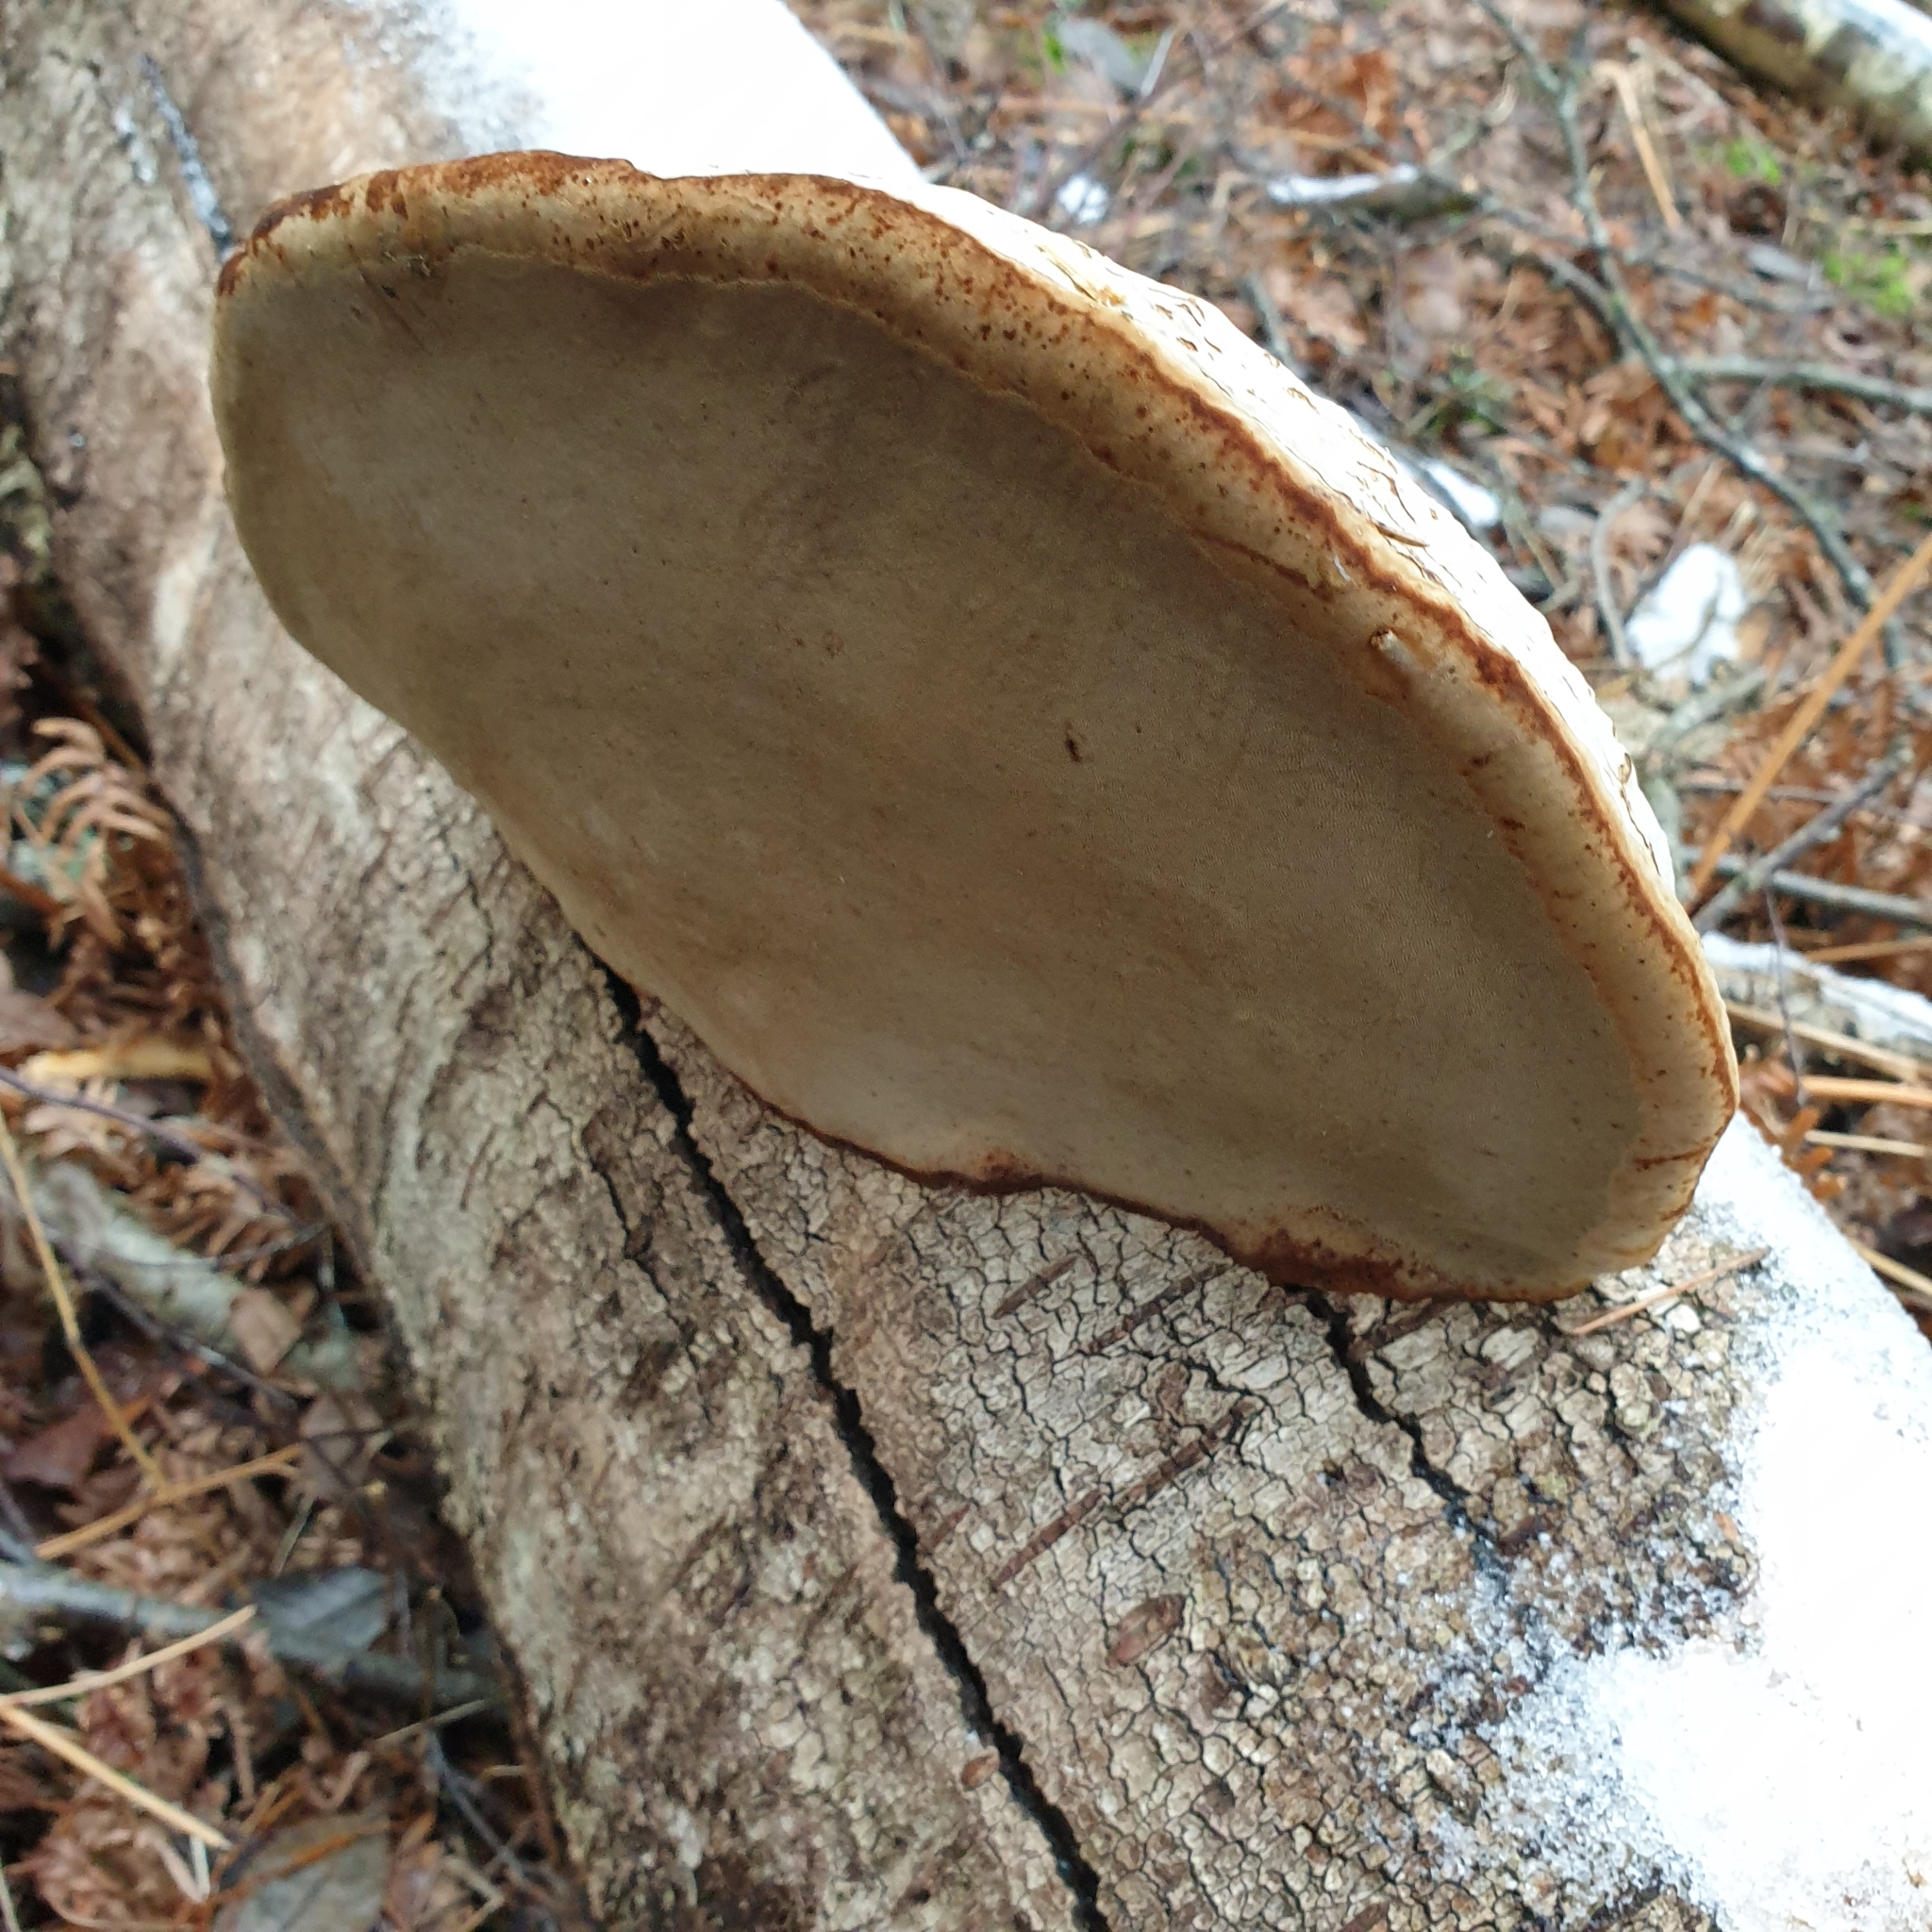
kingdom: Fungi
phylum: Basidiomycota
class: Agaricomycetes
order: Polyporales
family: Polyporaceae
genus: Fomes
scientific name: Fomes fomentarius
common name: Hoof fungus
